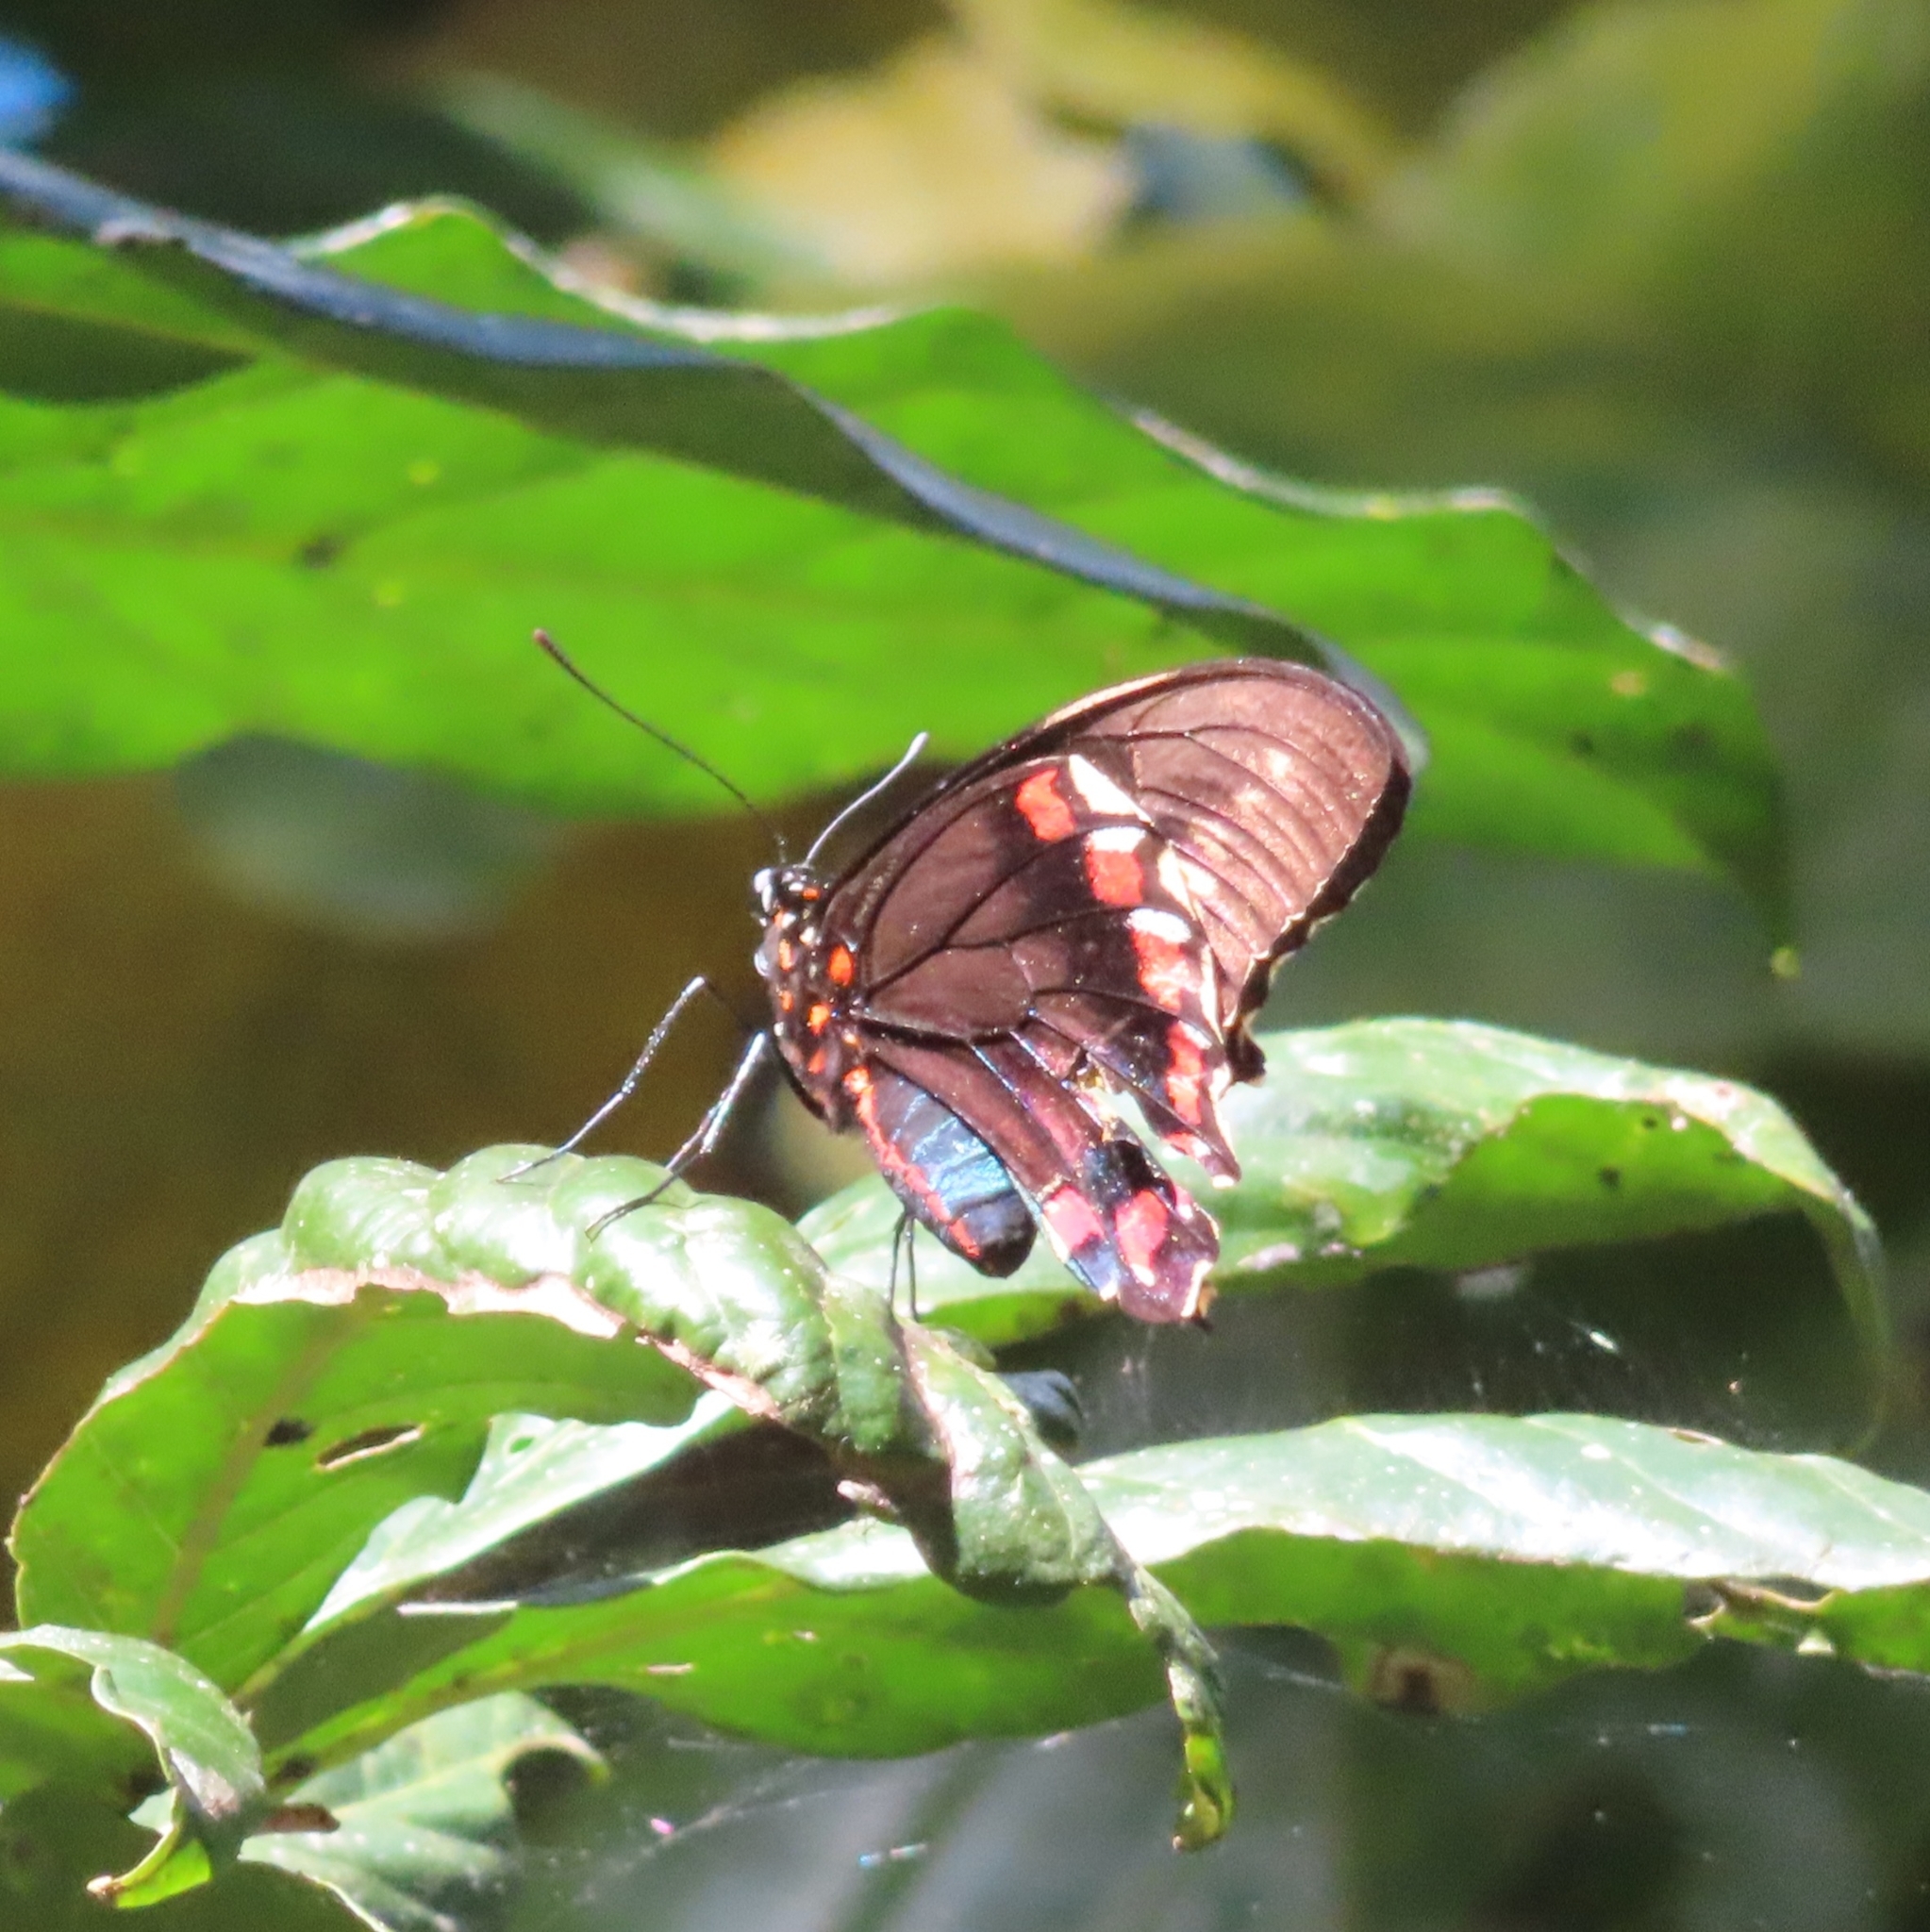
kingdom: Animalia
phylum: Arthropoda
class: Insecta
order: Lepidoptera
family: Papilionidae
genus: Battus
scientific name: Battus polydamas
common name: Polydamas swallowtail
